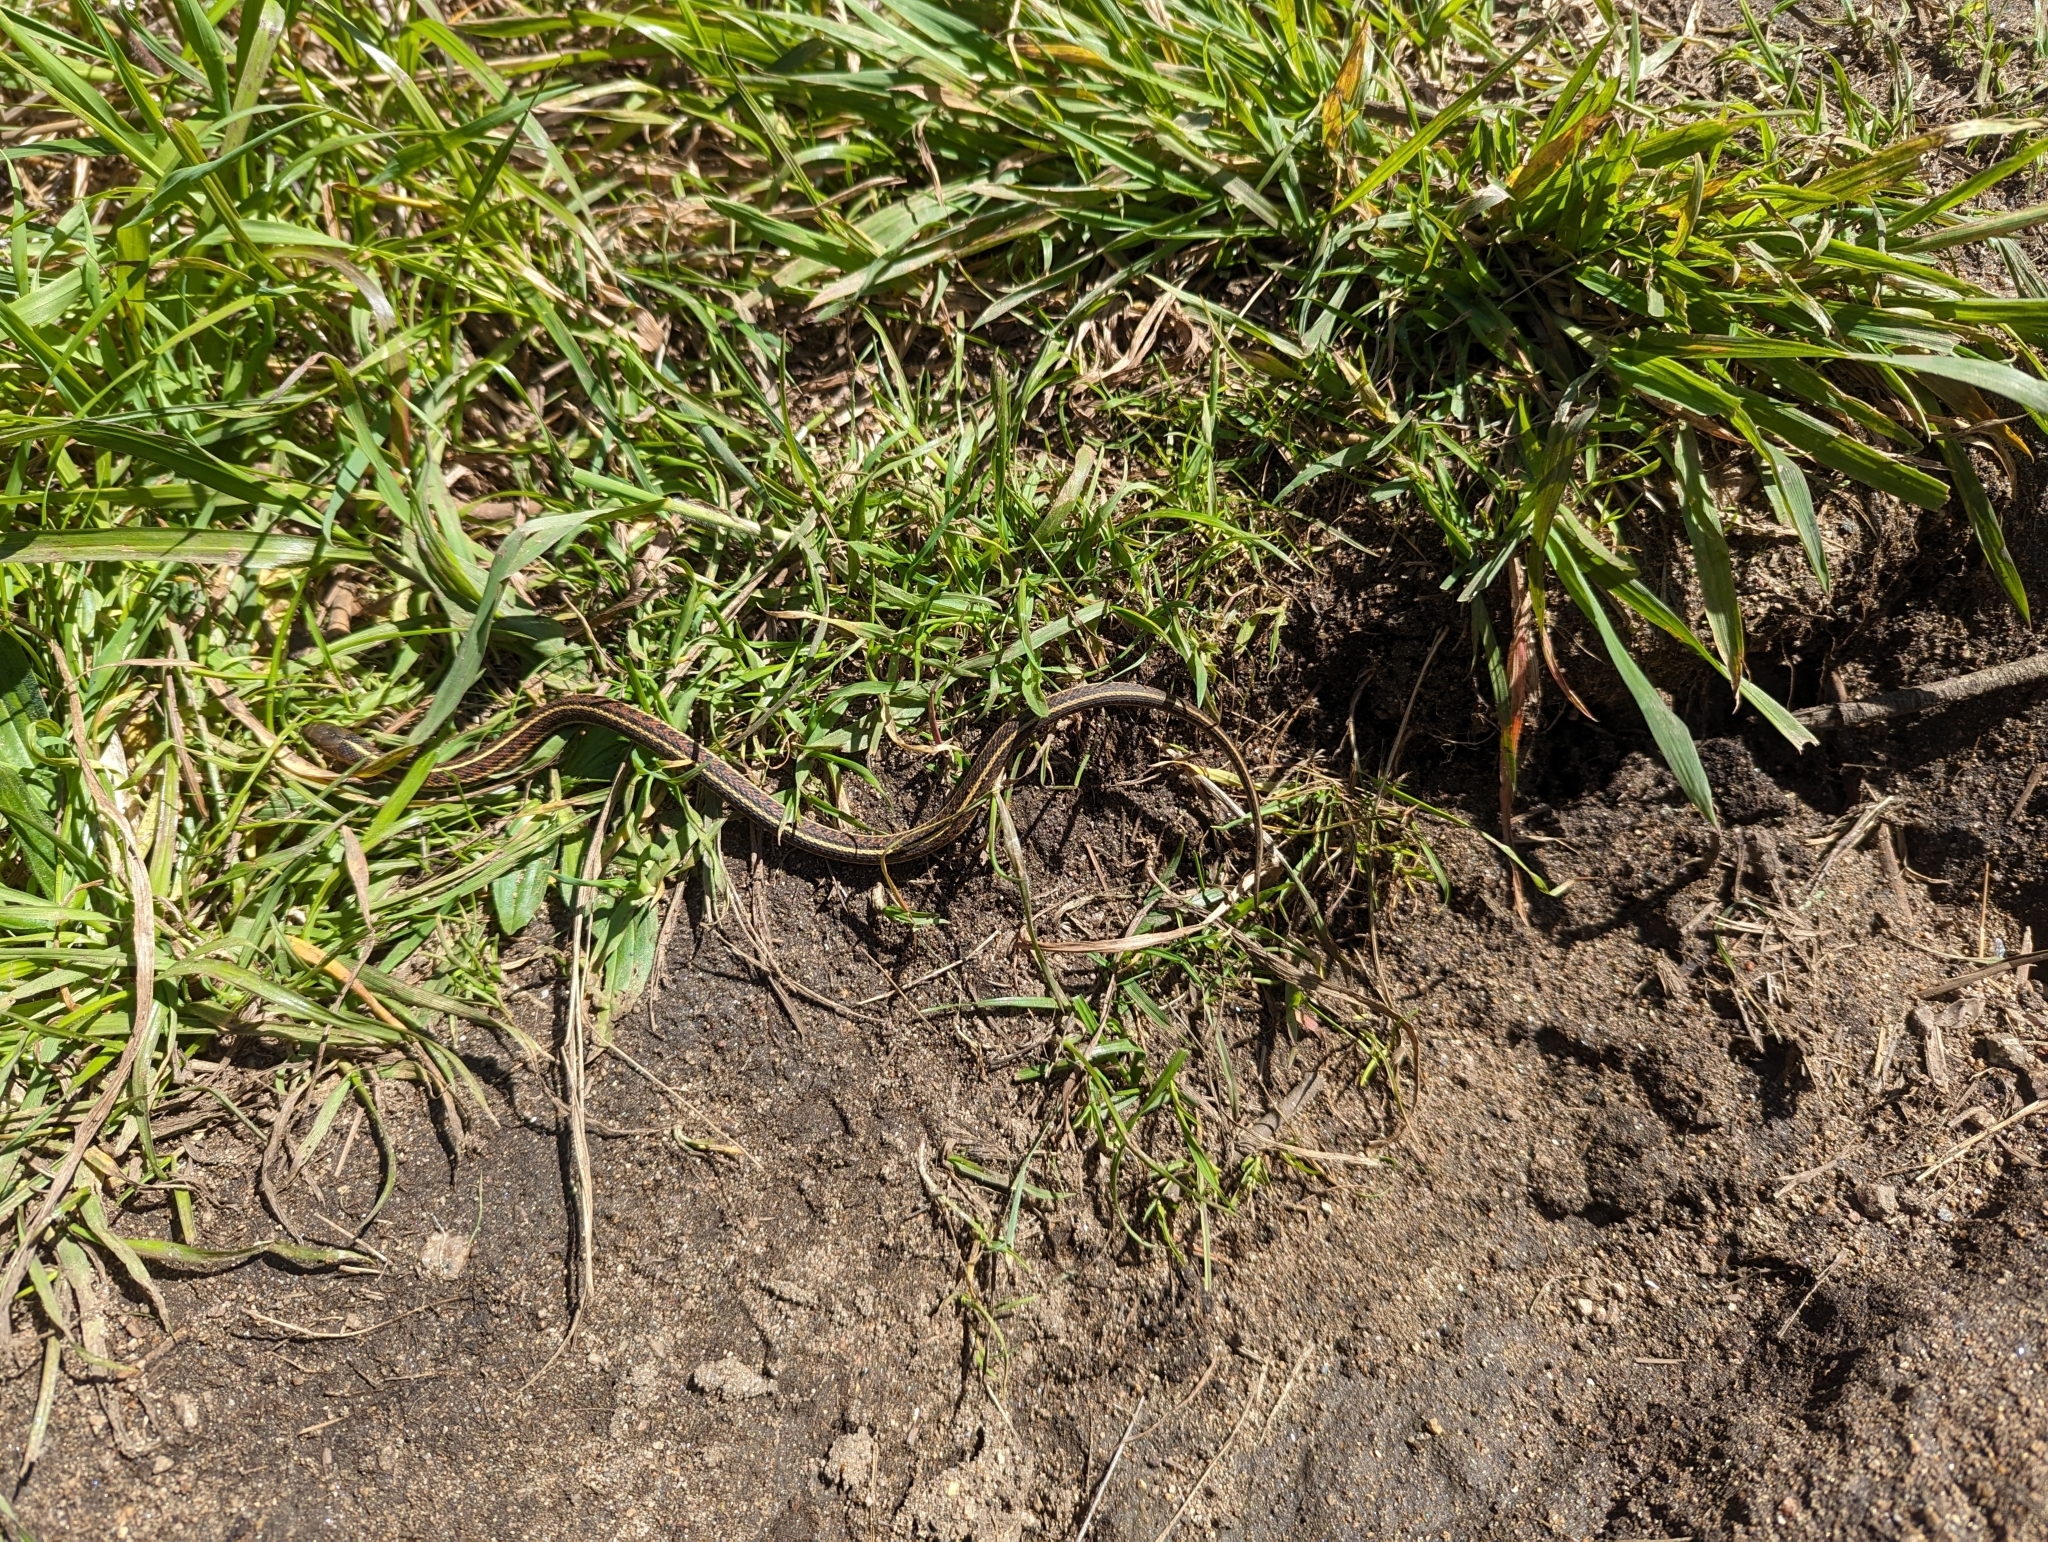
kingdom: Animalia
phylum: Chordata
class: Squamata
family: Colubridae
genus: Thamnophis
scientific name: Thamnophis elegans
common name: Western terrestrial garter snake
